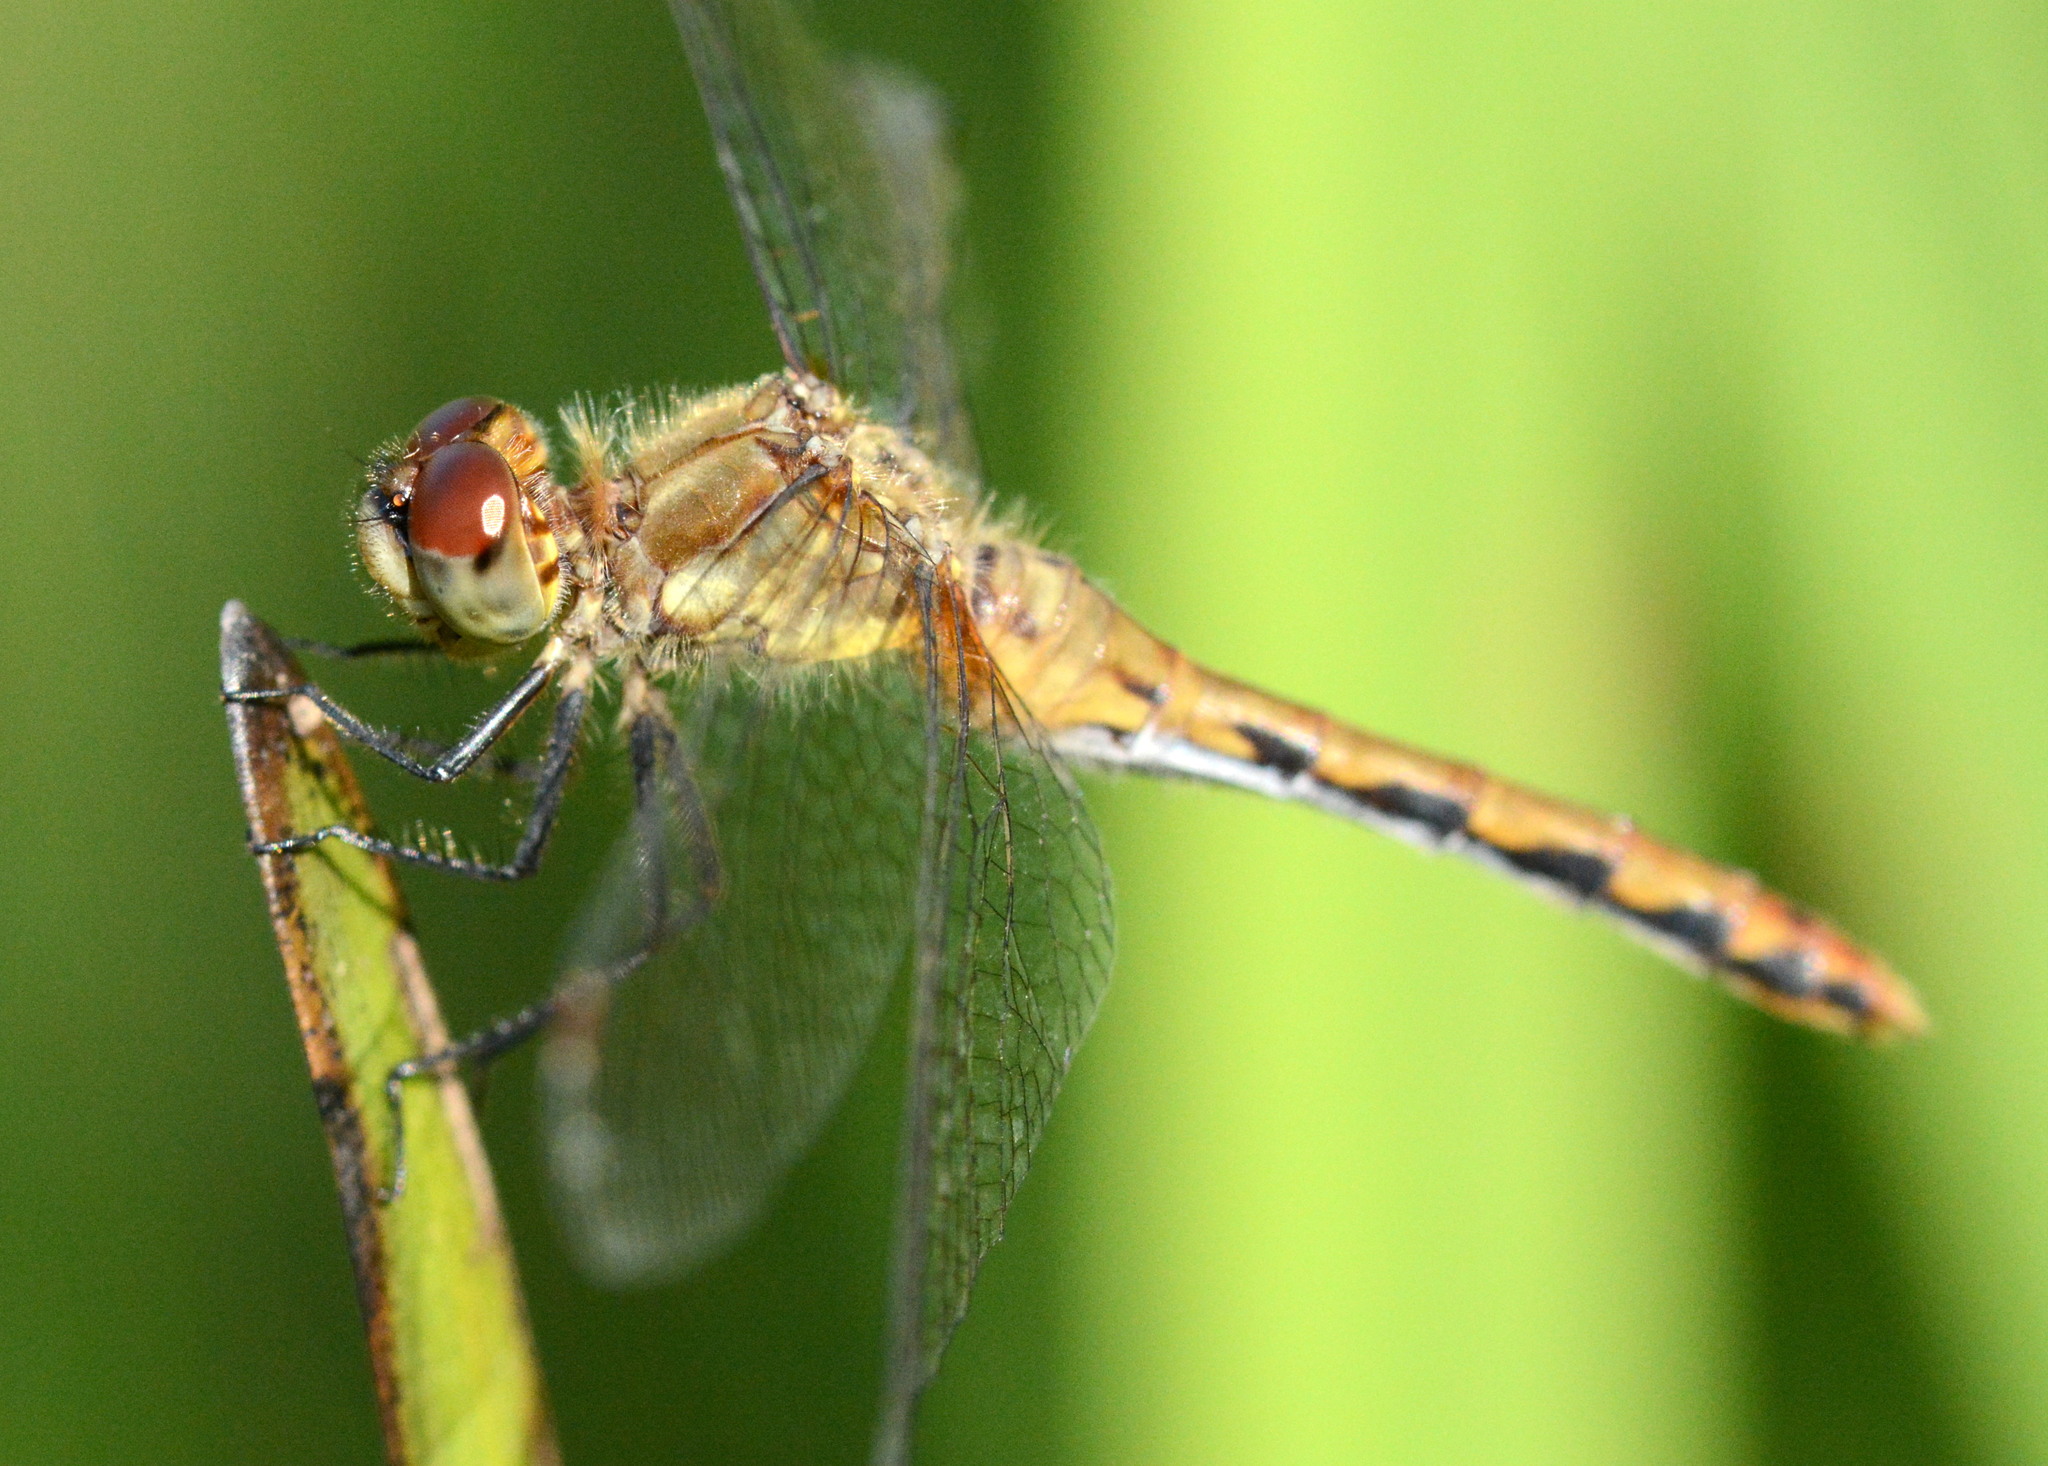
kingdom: Animalia
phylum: Arthropoda
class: Insecta
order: Odonata
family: Libellulidae
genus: Sympetrum
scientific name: Sympetrum obtrusum
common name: White-faced meadowhawk
